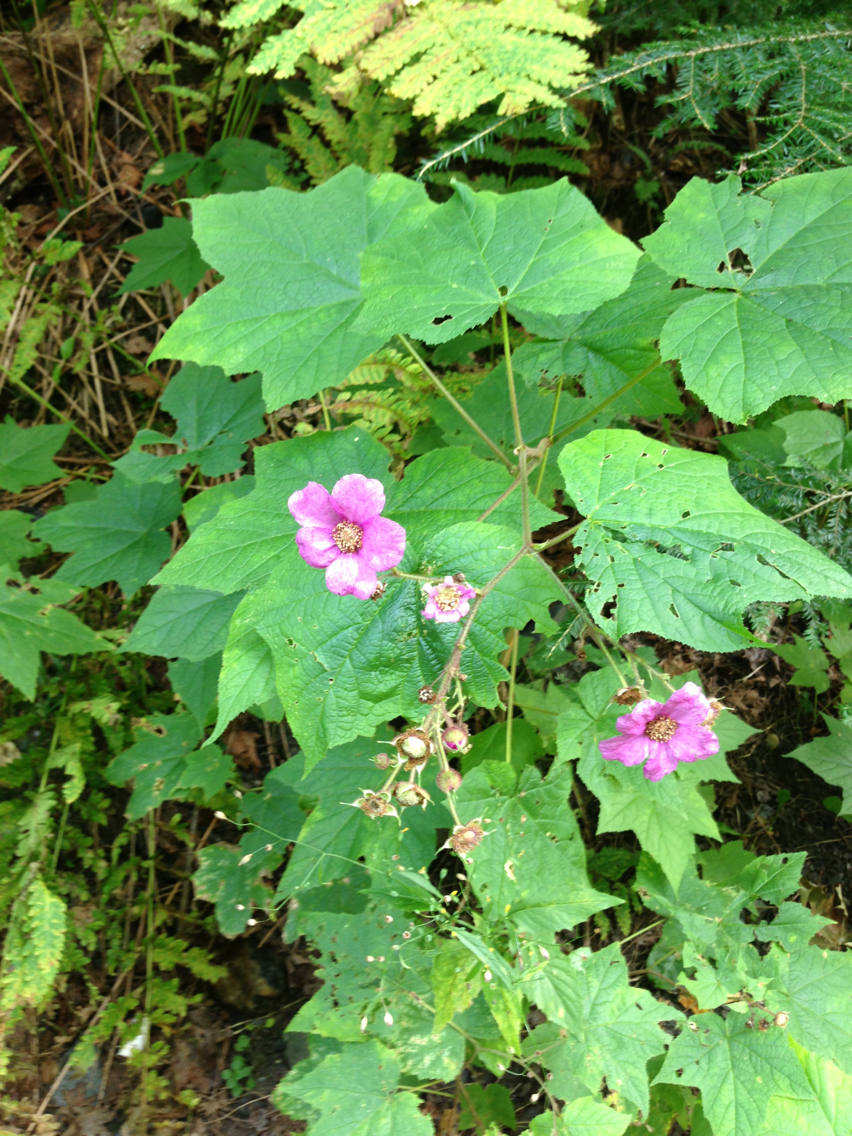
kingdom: Plantae
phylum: Tracheophyta
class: Magnoliopsida
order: Rosales
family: Rosaceae
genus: Rubus
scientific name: Rubus odoratus
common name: Purple-flowered raspberry
